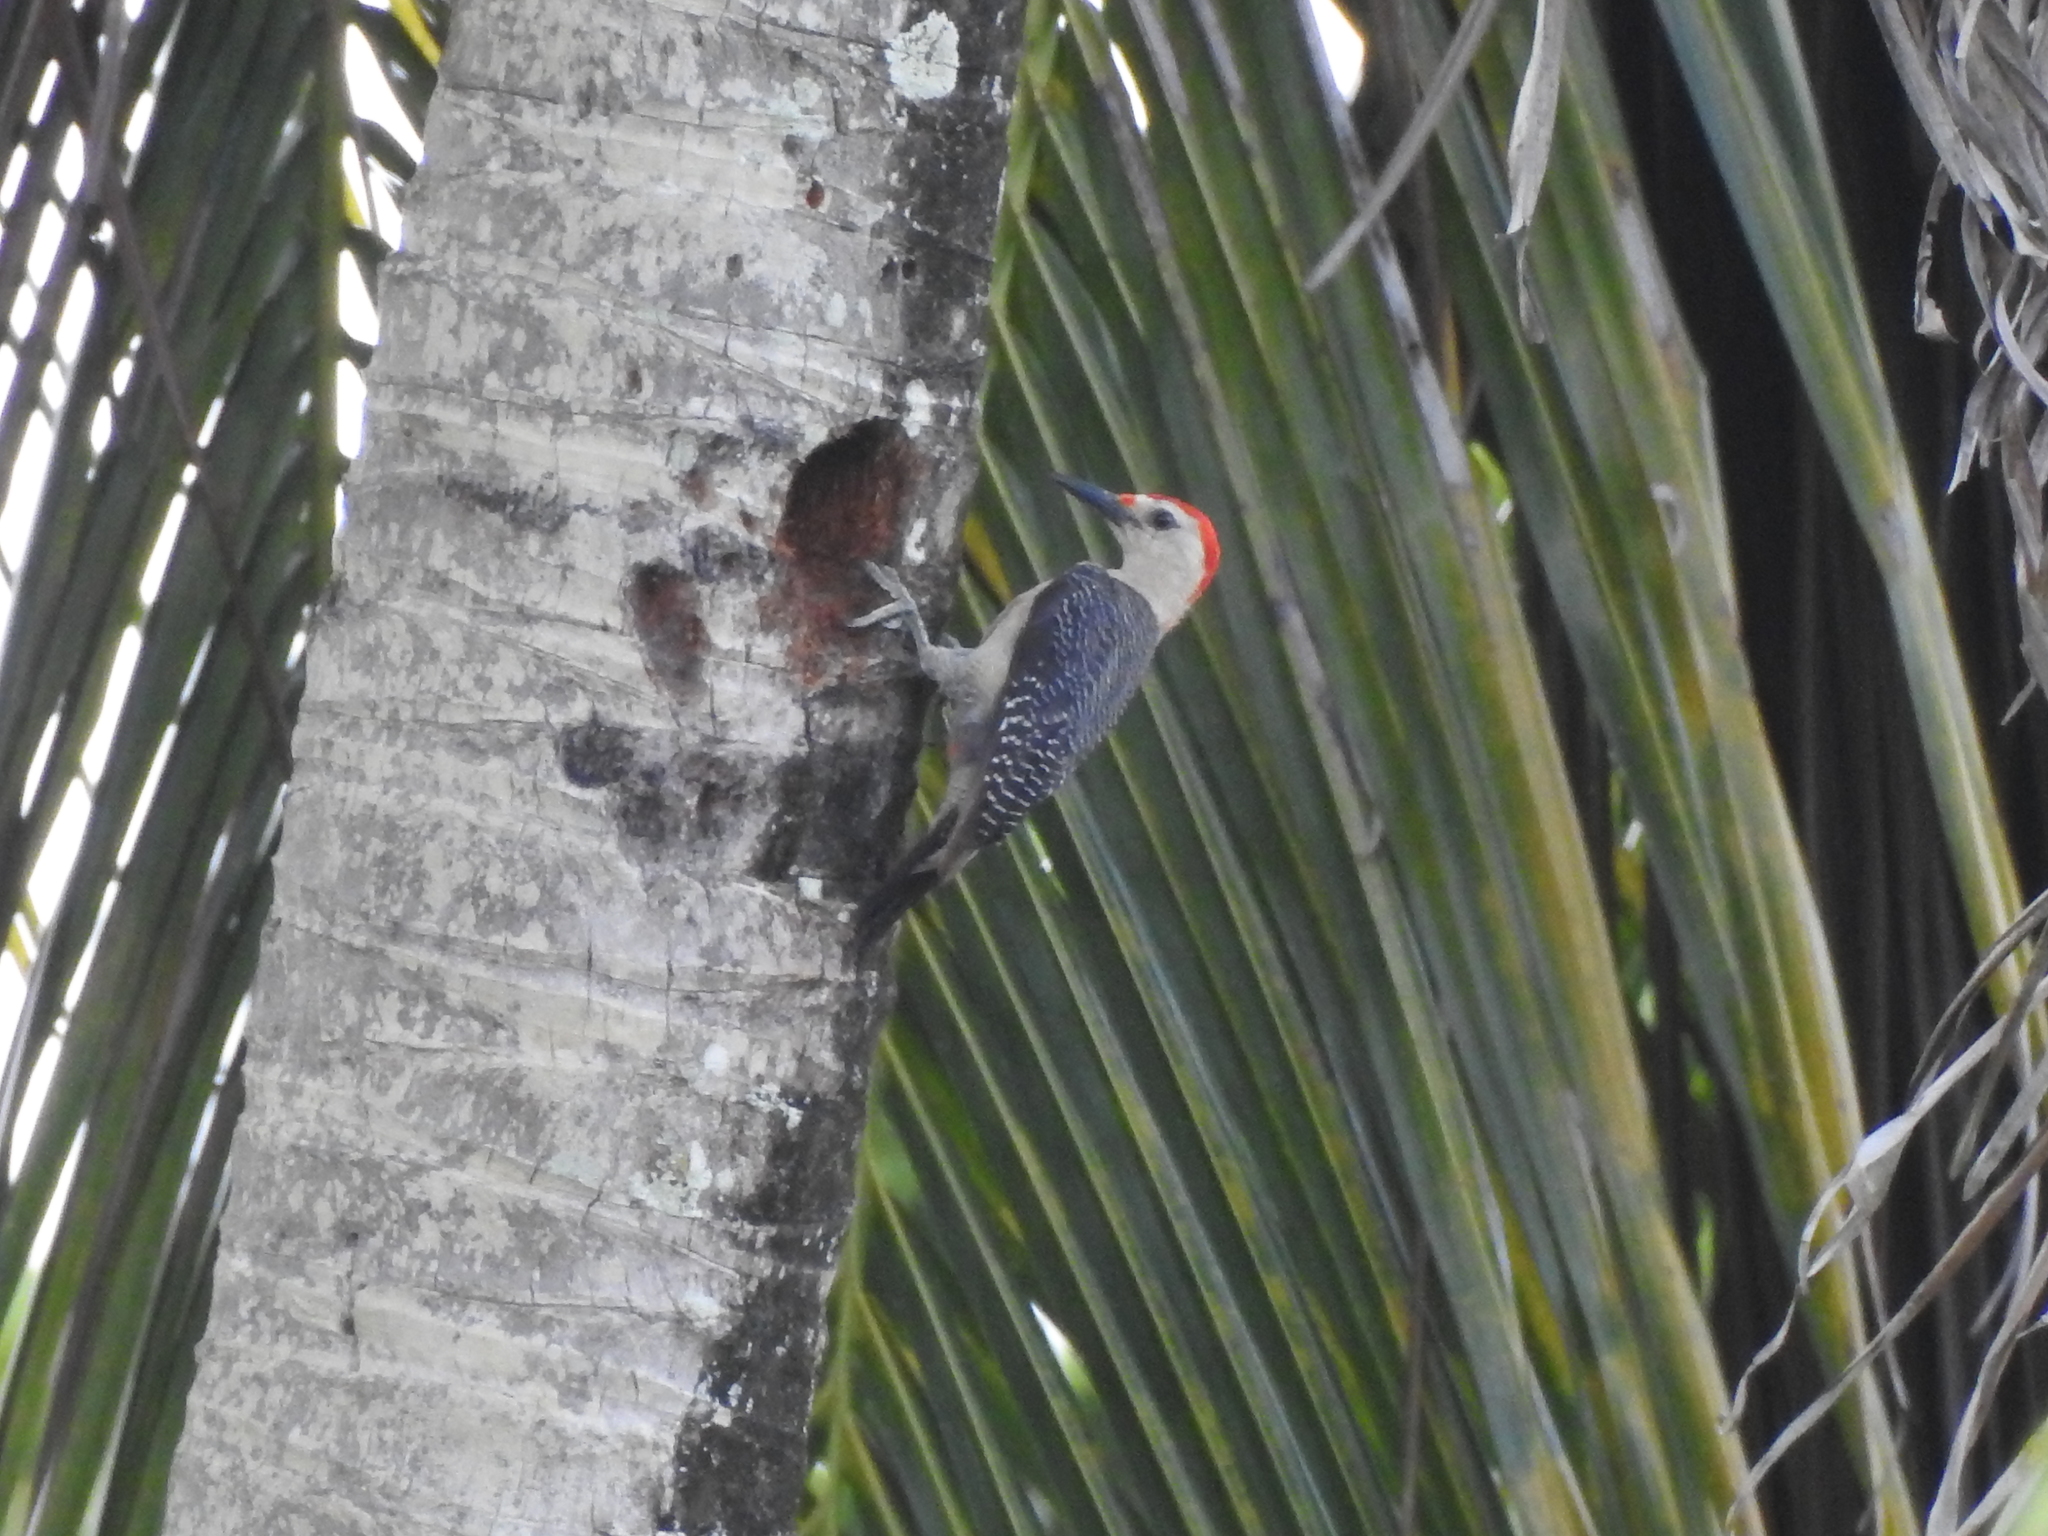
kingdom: Animalia
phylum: Chordata
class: Aves
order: Piciformes
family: Picidae
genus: Melanerpes
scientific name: Melanerpes aurifrons
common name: Golden-fronted woodpecker
